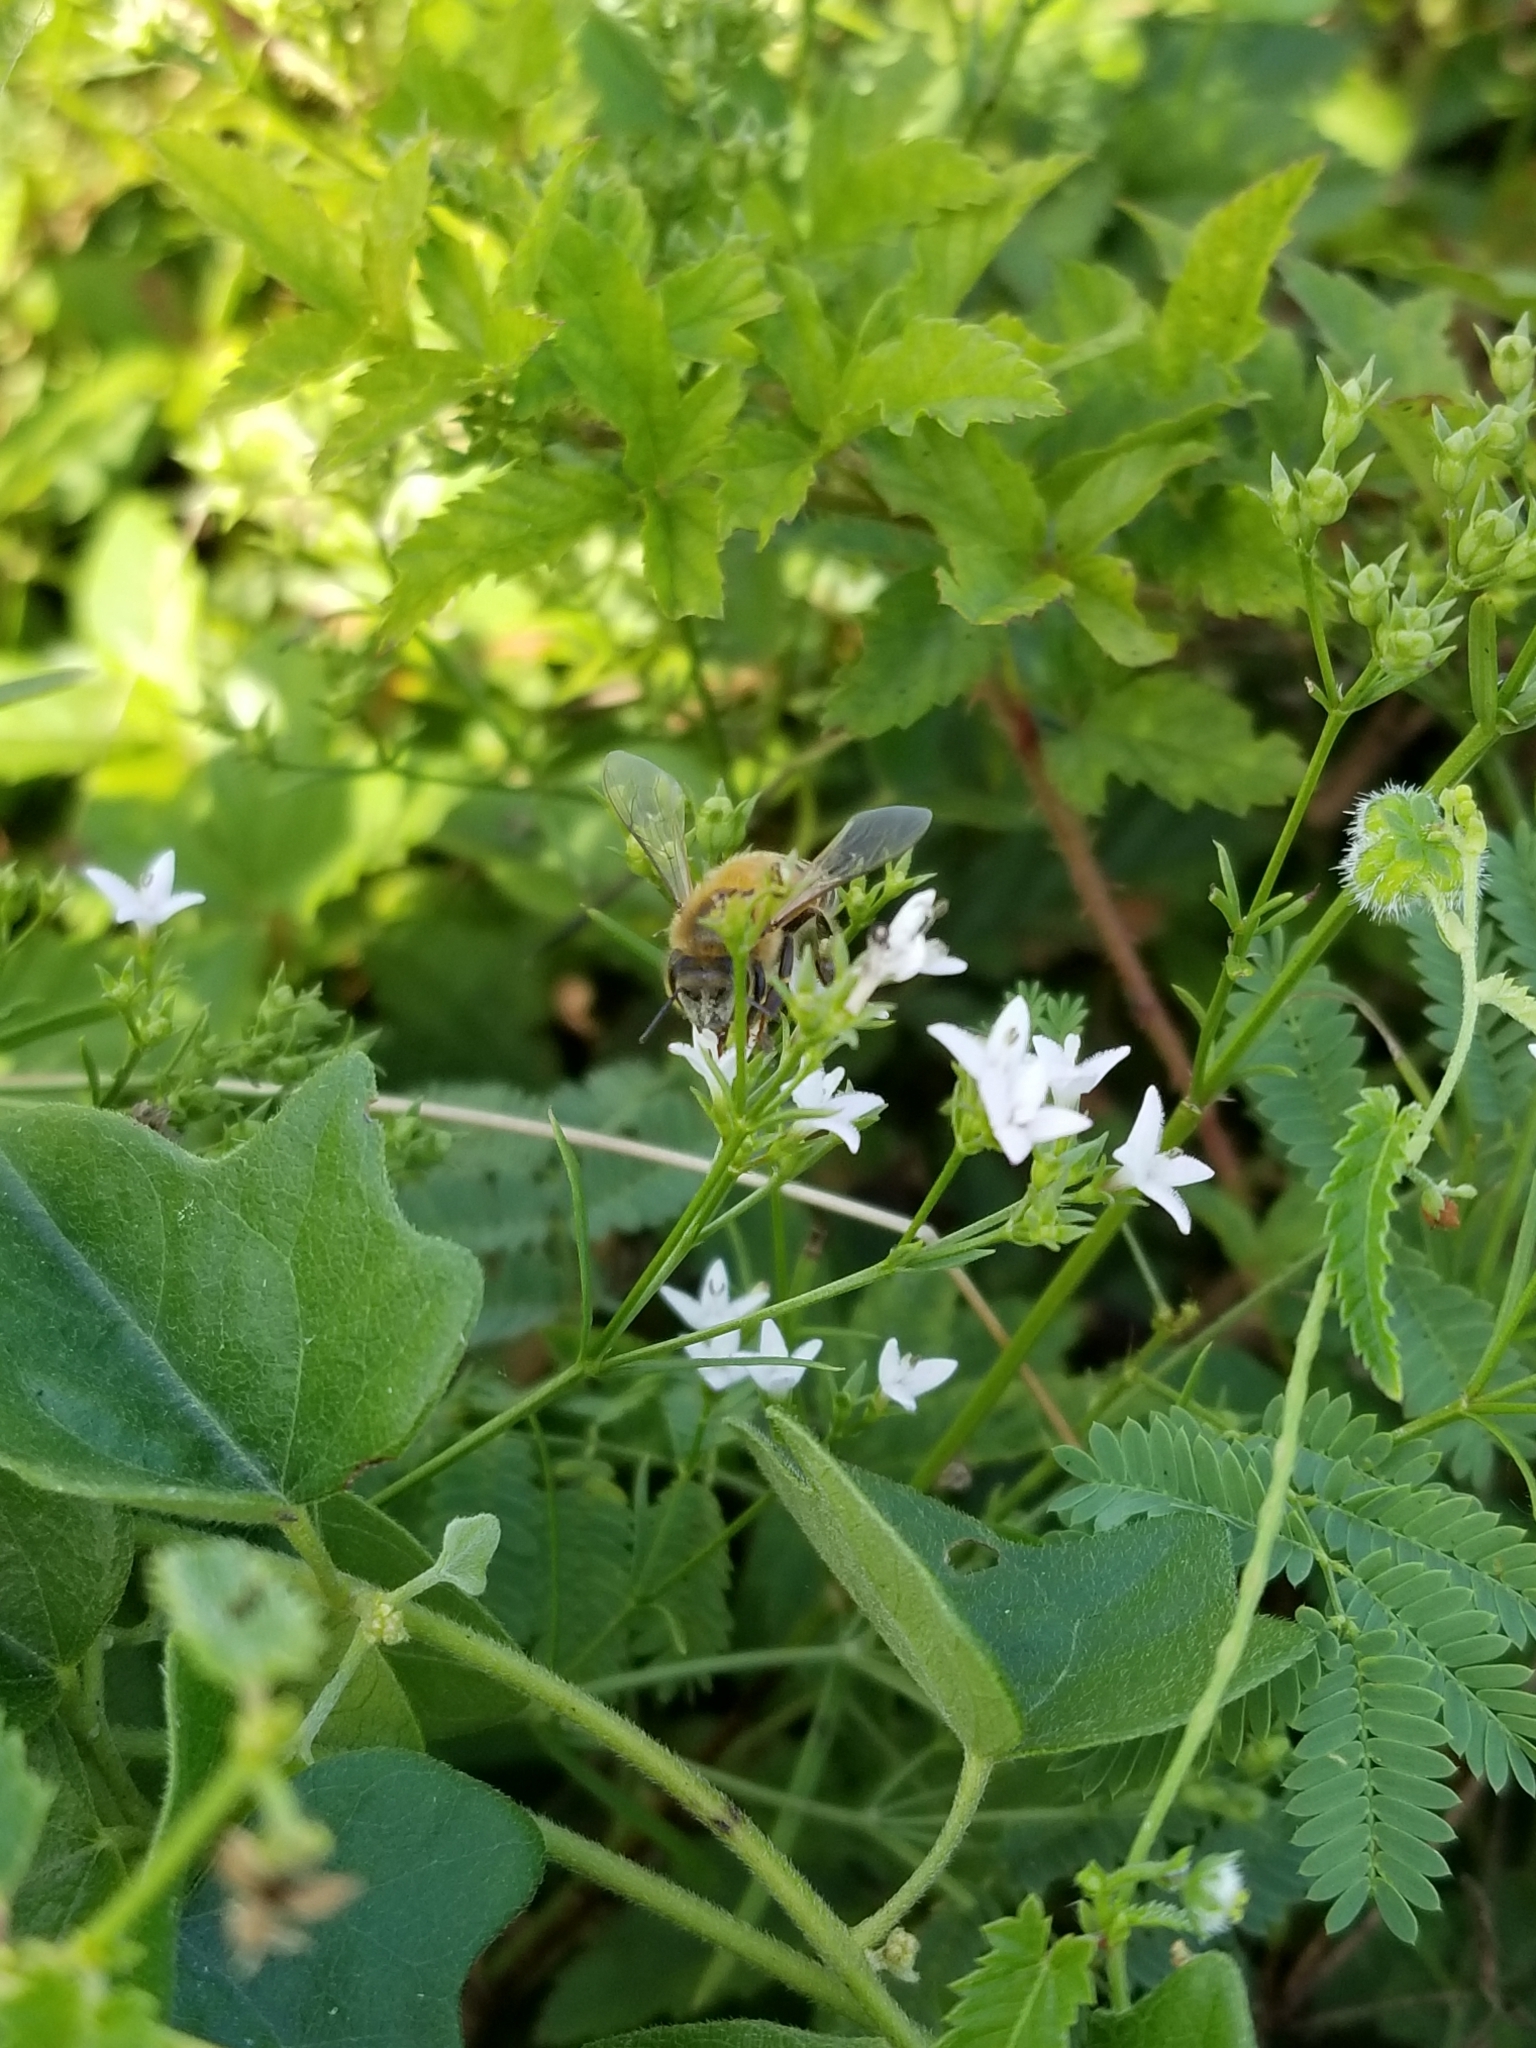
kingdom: Plantae
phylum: Tracheophyta
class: Magnoliopsida
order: Gentianales
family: Rubiaceae
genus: Stenaria
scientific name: Stenaria nigricans
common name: Diamondflowers
